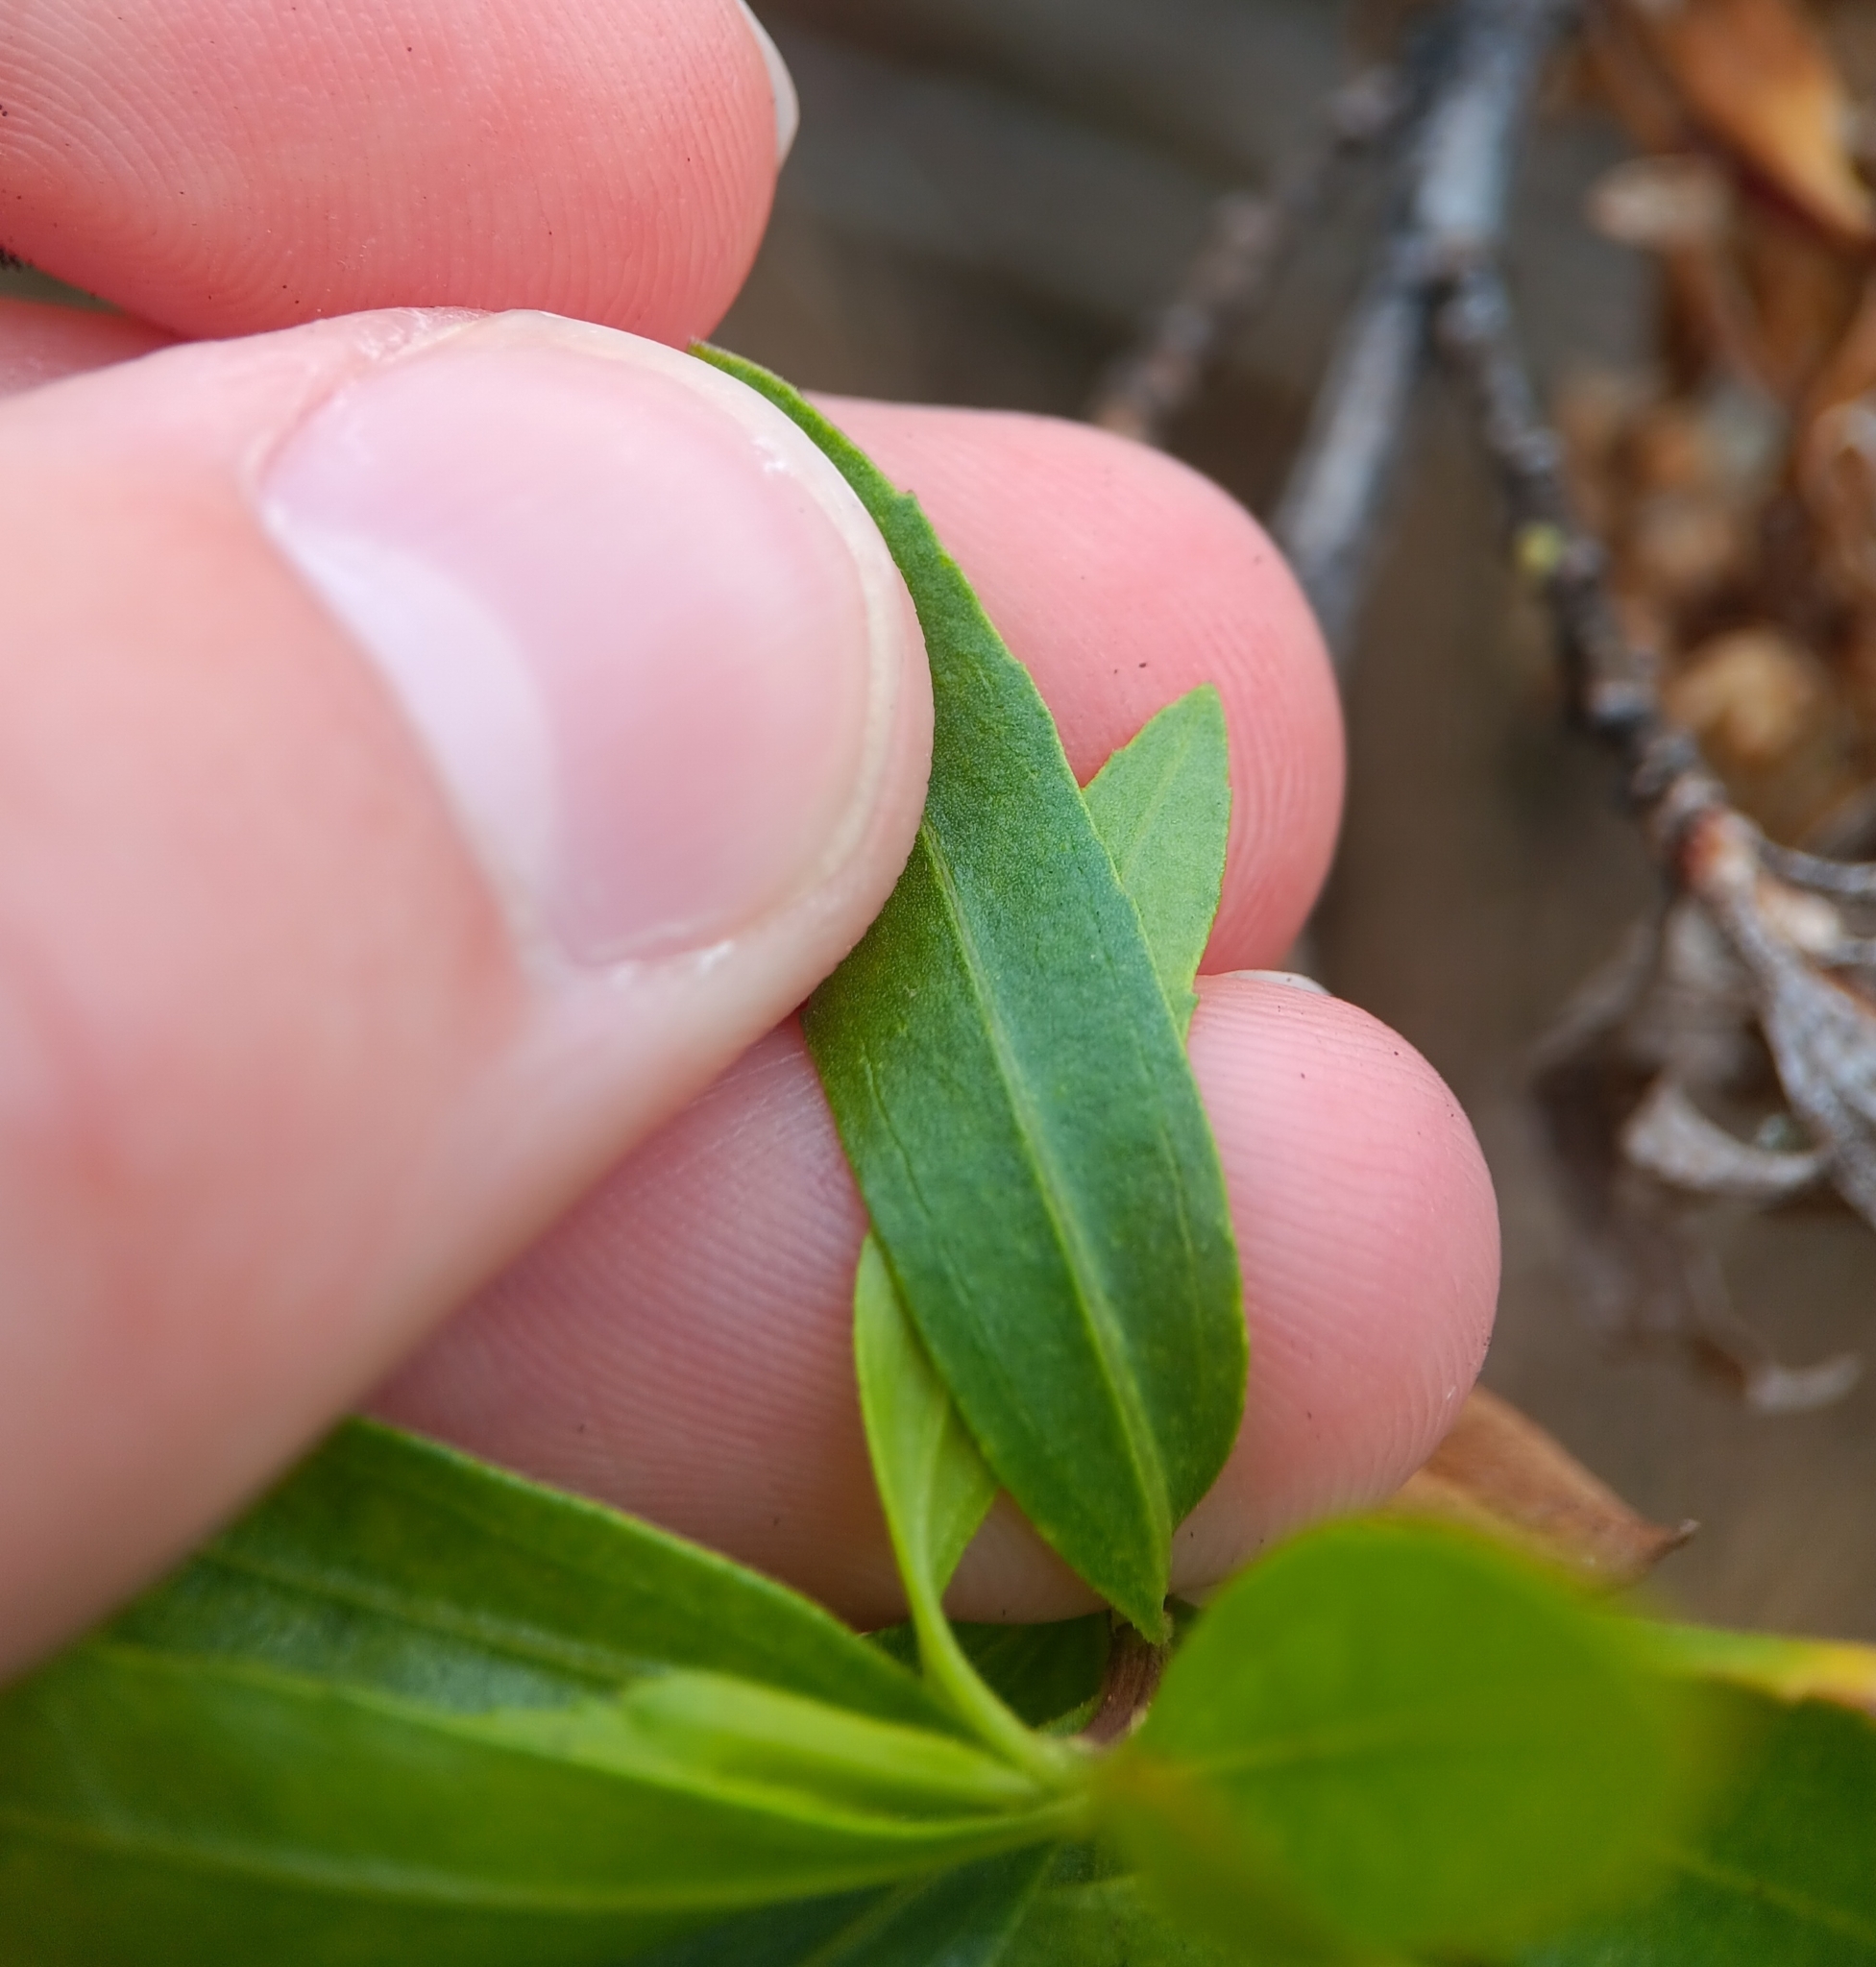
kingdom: Plantae
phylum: Tracheophyta
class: Magnoliopsida
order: Asterales
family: Asteraceae
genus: Baccharis
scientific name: Baccharis salicifolia
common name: Sticky baccharis
